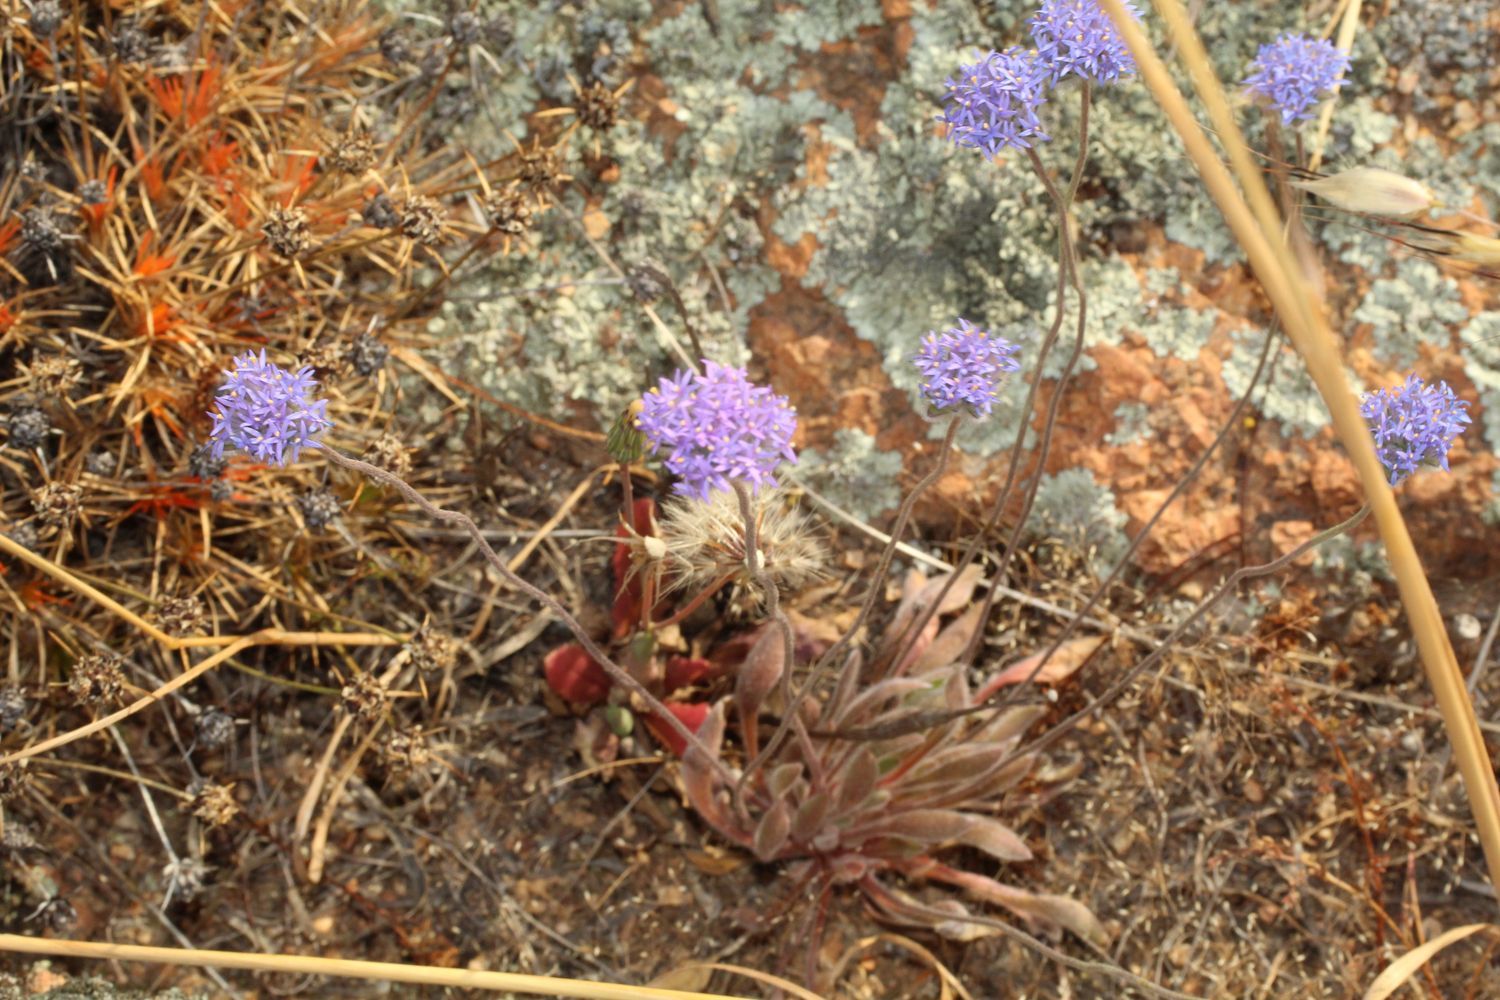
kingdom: Plantae
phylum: Tracheophyta
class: Magnoliopsida
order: Asterales
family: Goodeniaceae
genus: Brunonia
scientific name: Brunonia australis
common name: Blue pincushion
